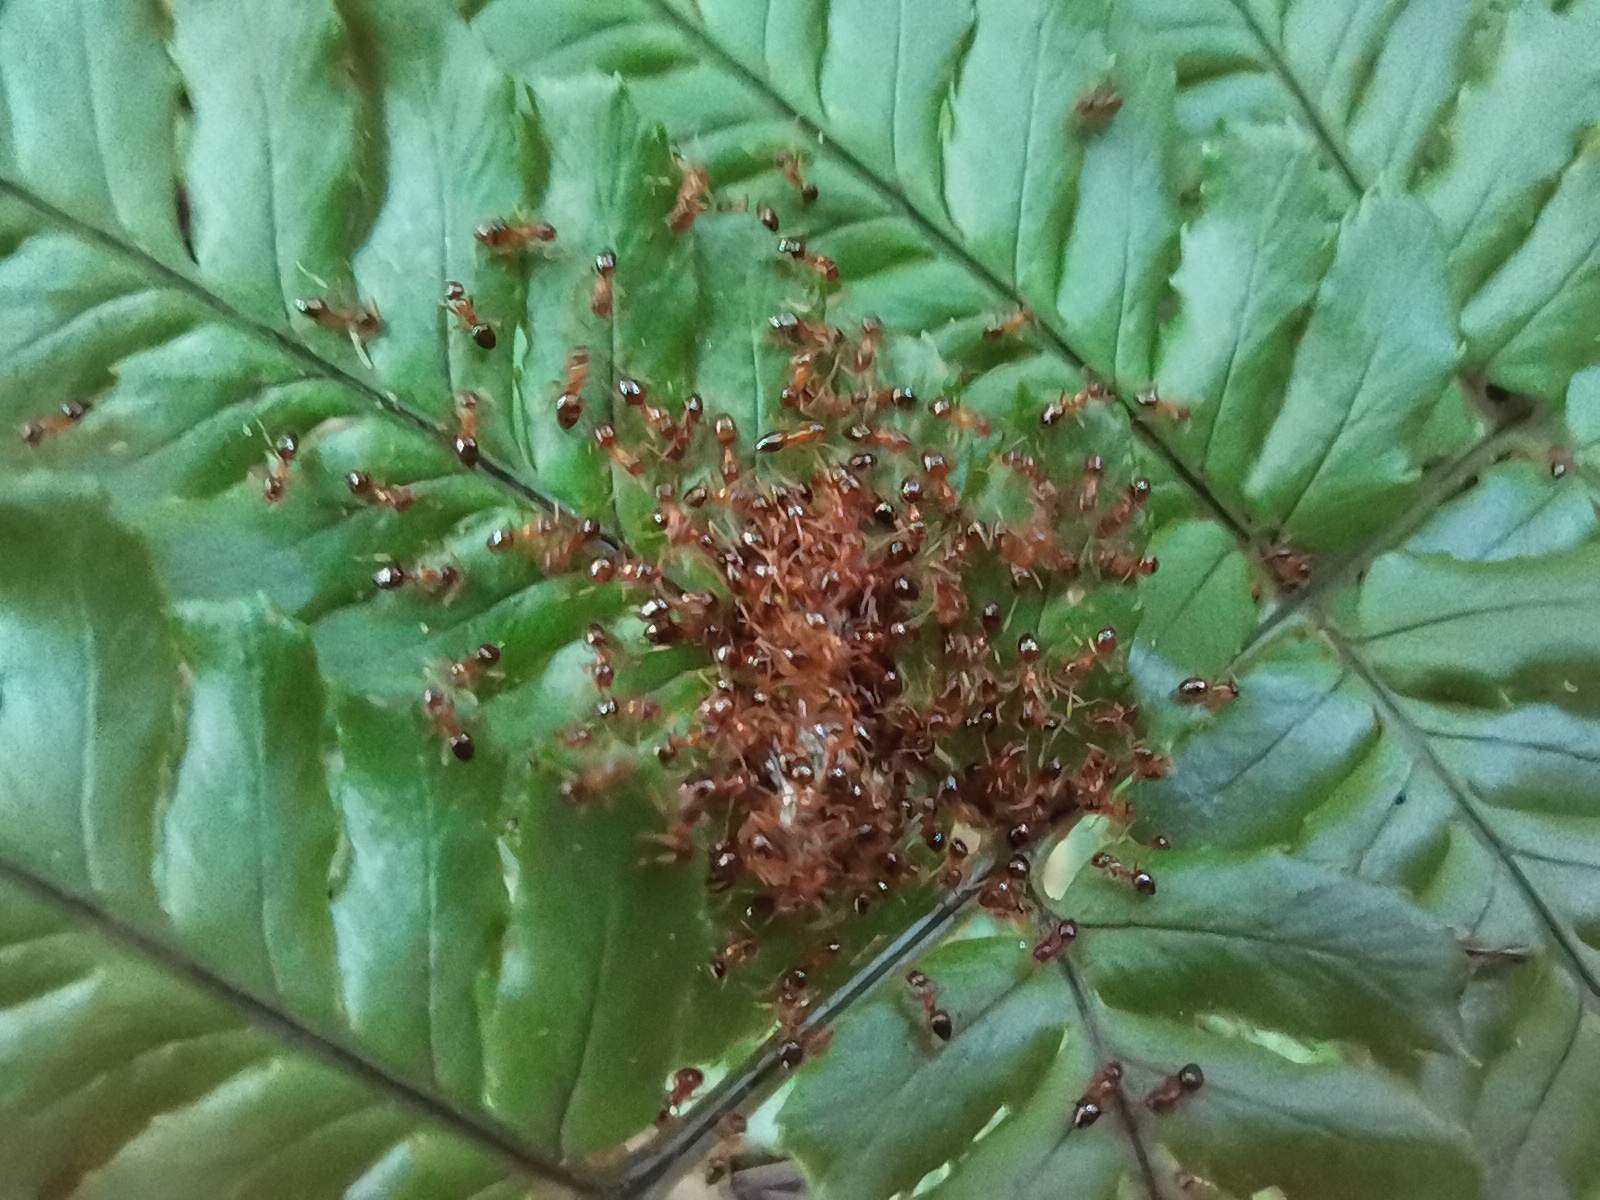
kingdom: Animalia
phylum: Arthropoda
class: Insecta
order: Hymenoptera
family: Formicidae
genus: Paratrechina
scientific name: Paratrechina flavipes
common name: Eastern asian formicine ant
